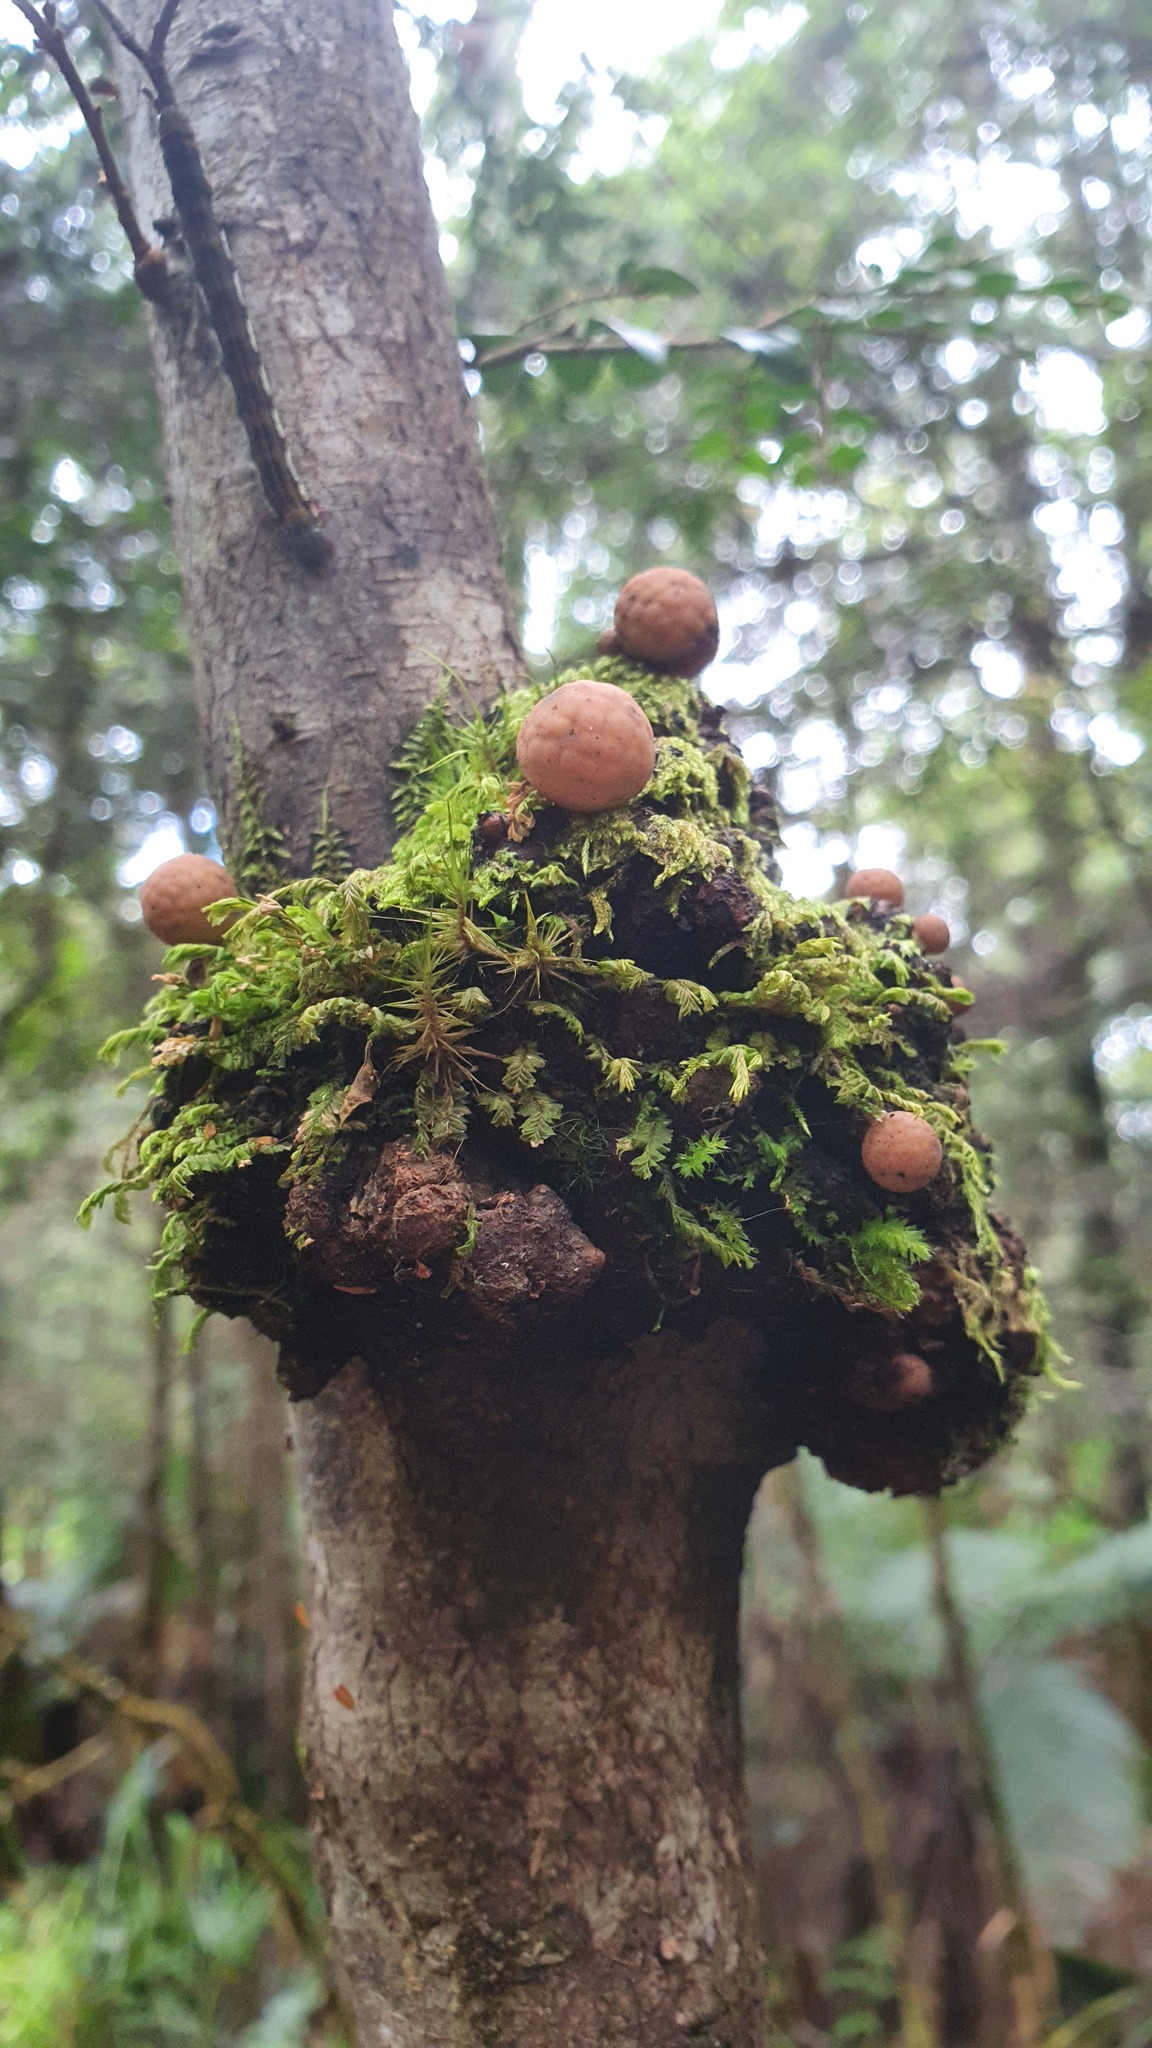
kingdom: Fungi
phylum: Ascomycota
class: Leotiomycetes
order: Cyttariales
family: Cyttariaceae
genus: Cyttaria
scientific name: Cyttaria gunnii
